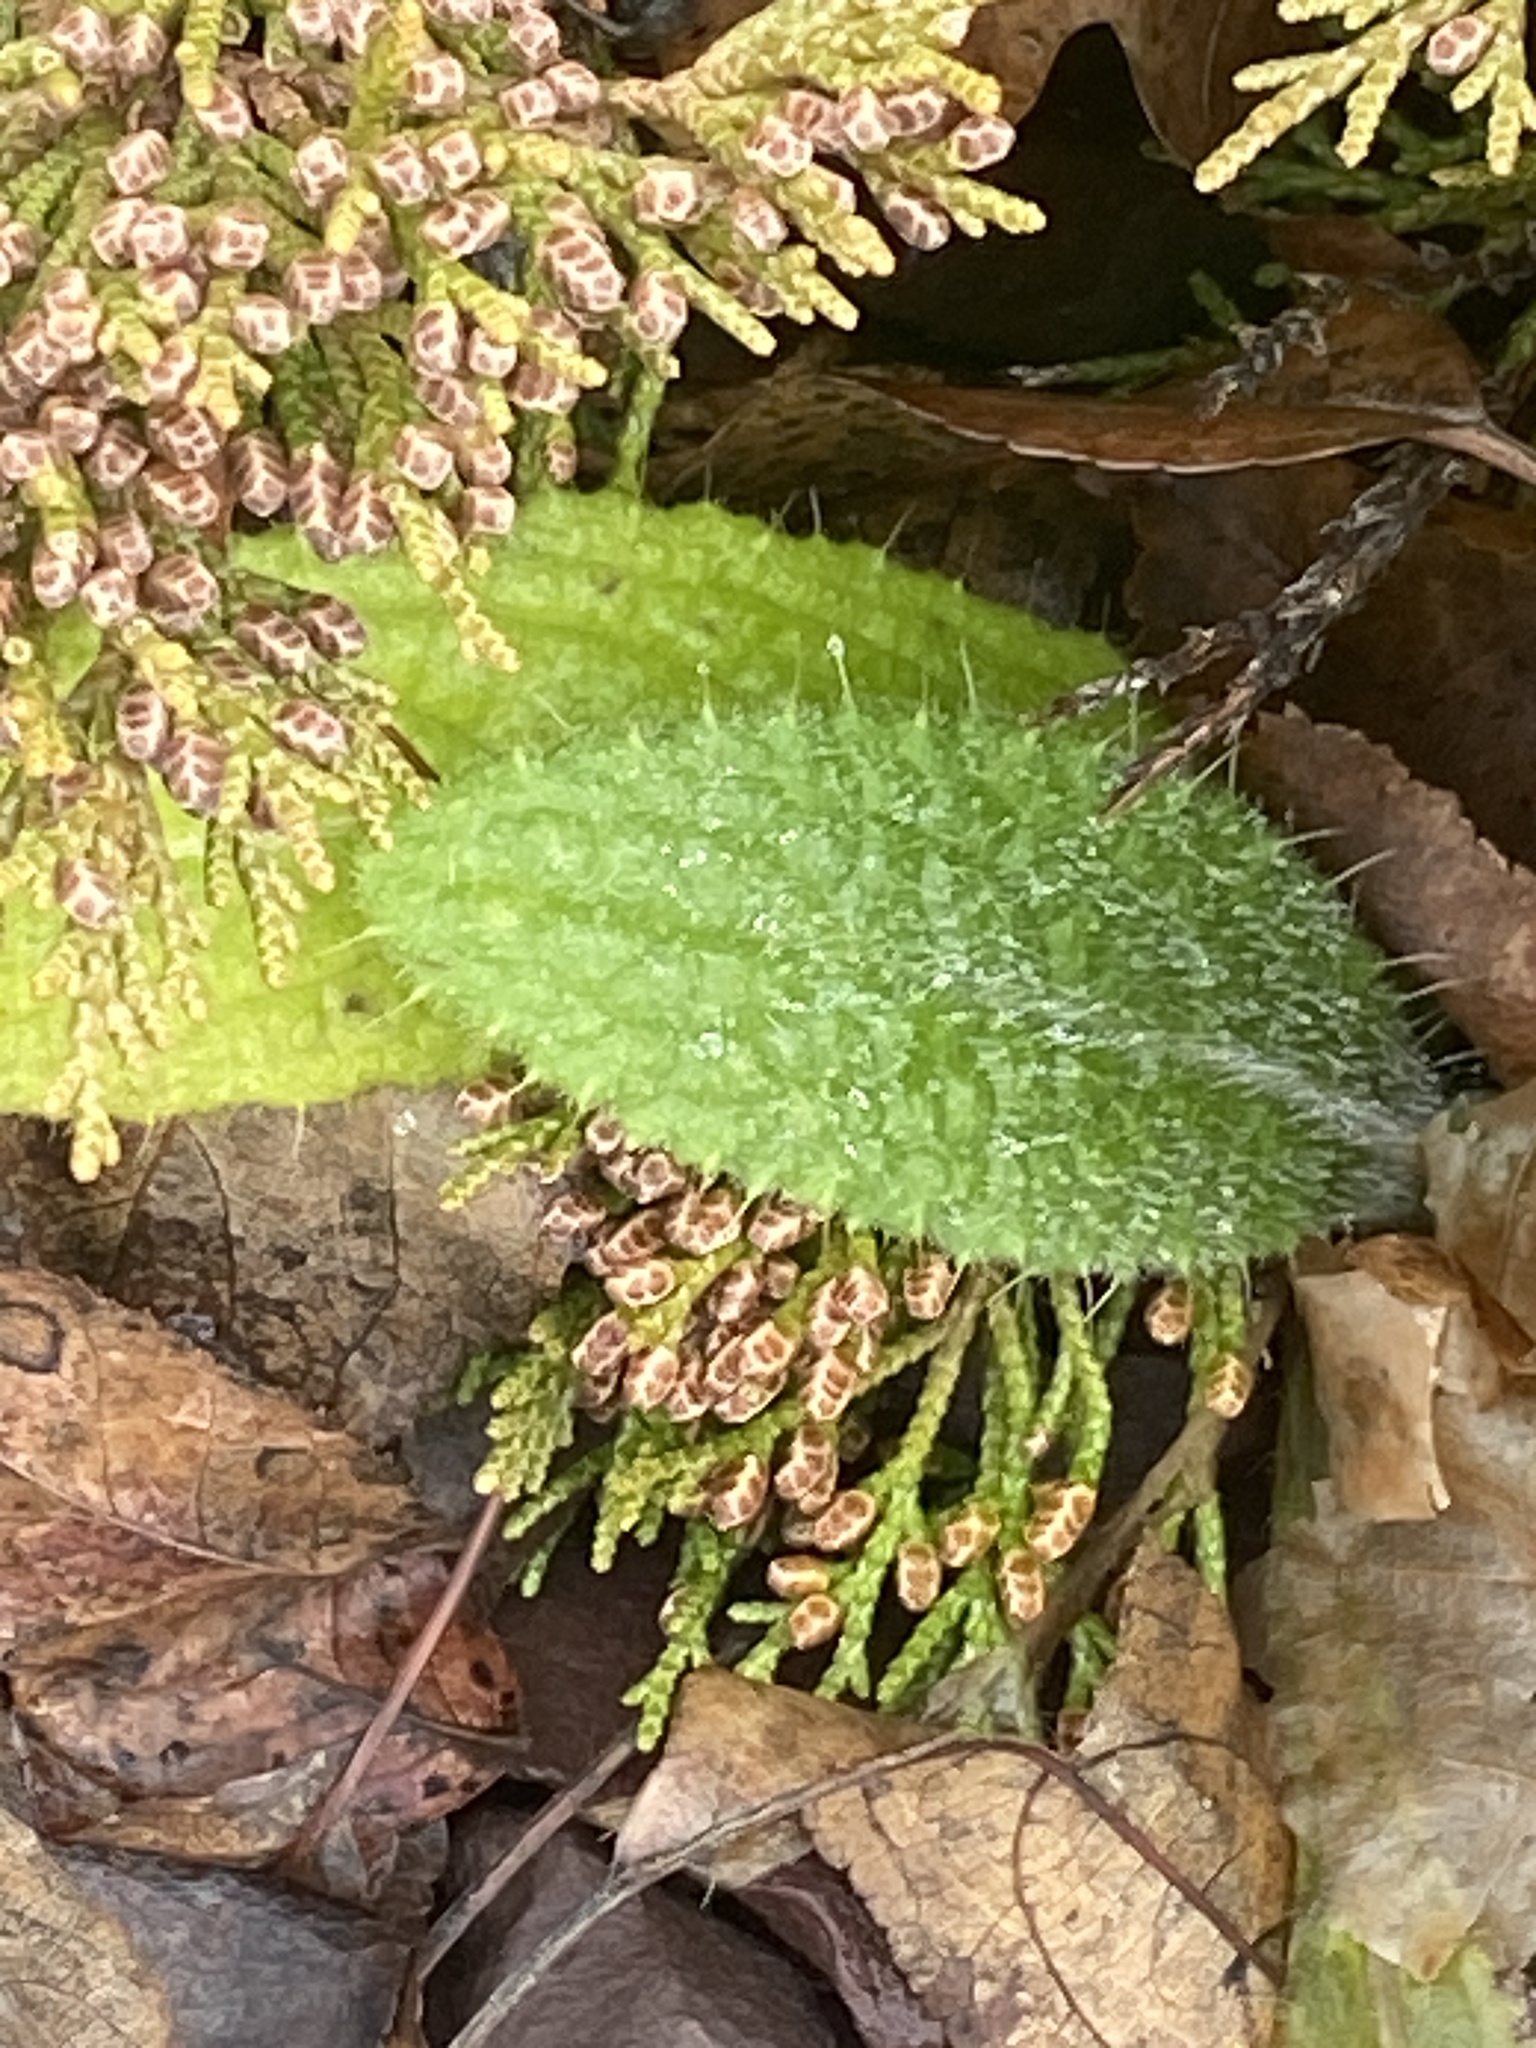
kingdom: Plantae
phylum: Tracheophyta
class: Magnoliopsida
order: Asterales
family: Asteraceae
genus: Cirsium
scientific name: Cirsium vulgare
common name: Bull thistle
